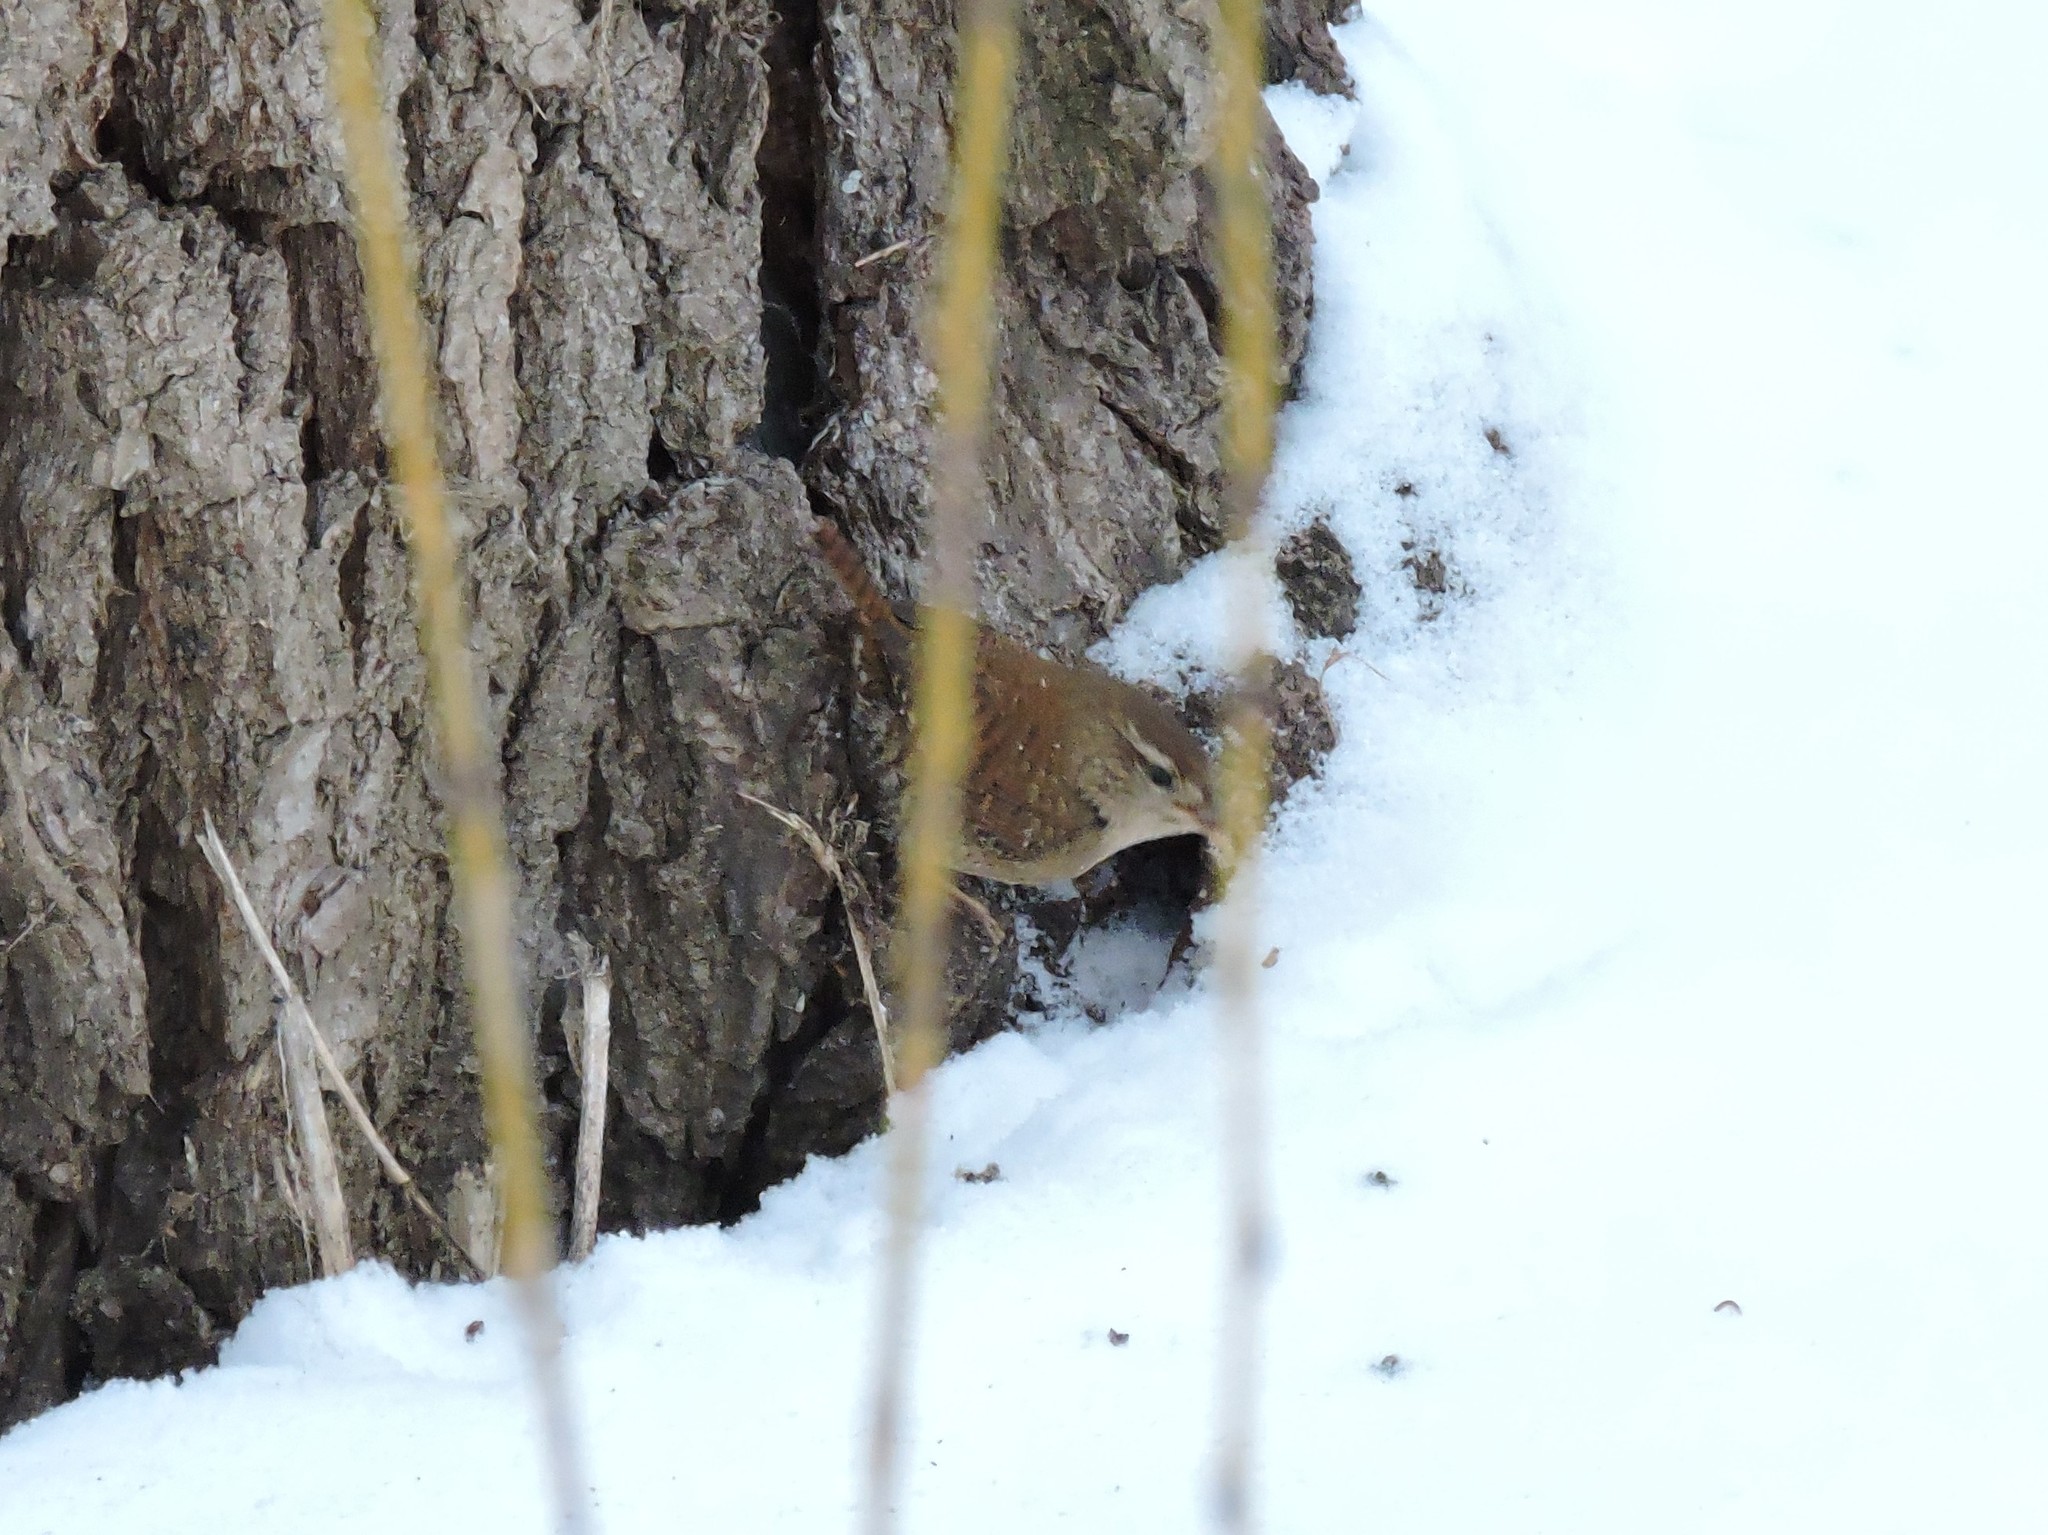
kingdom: Animalia
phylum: Chordata
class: Aves
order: Passeriformes
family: Troglodytidae
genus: Troglodytes
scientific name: Troglodytes troglodytes
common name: Eurasian wren
